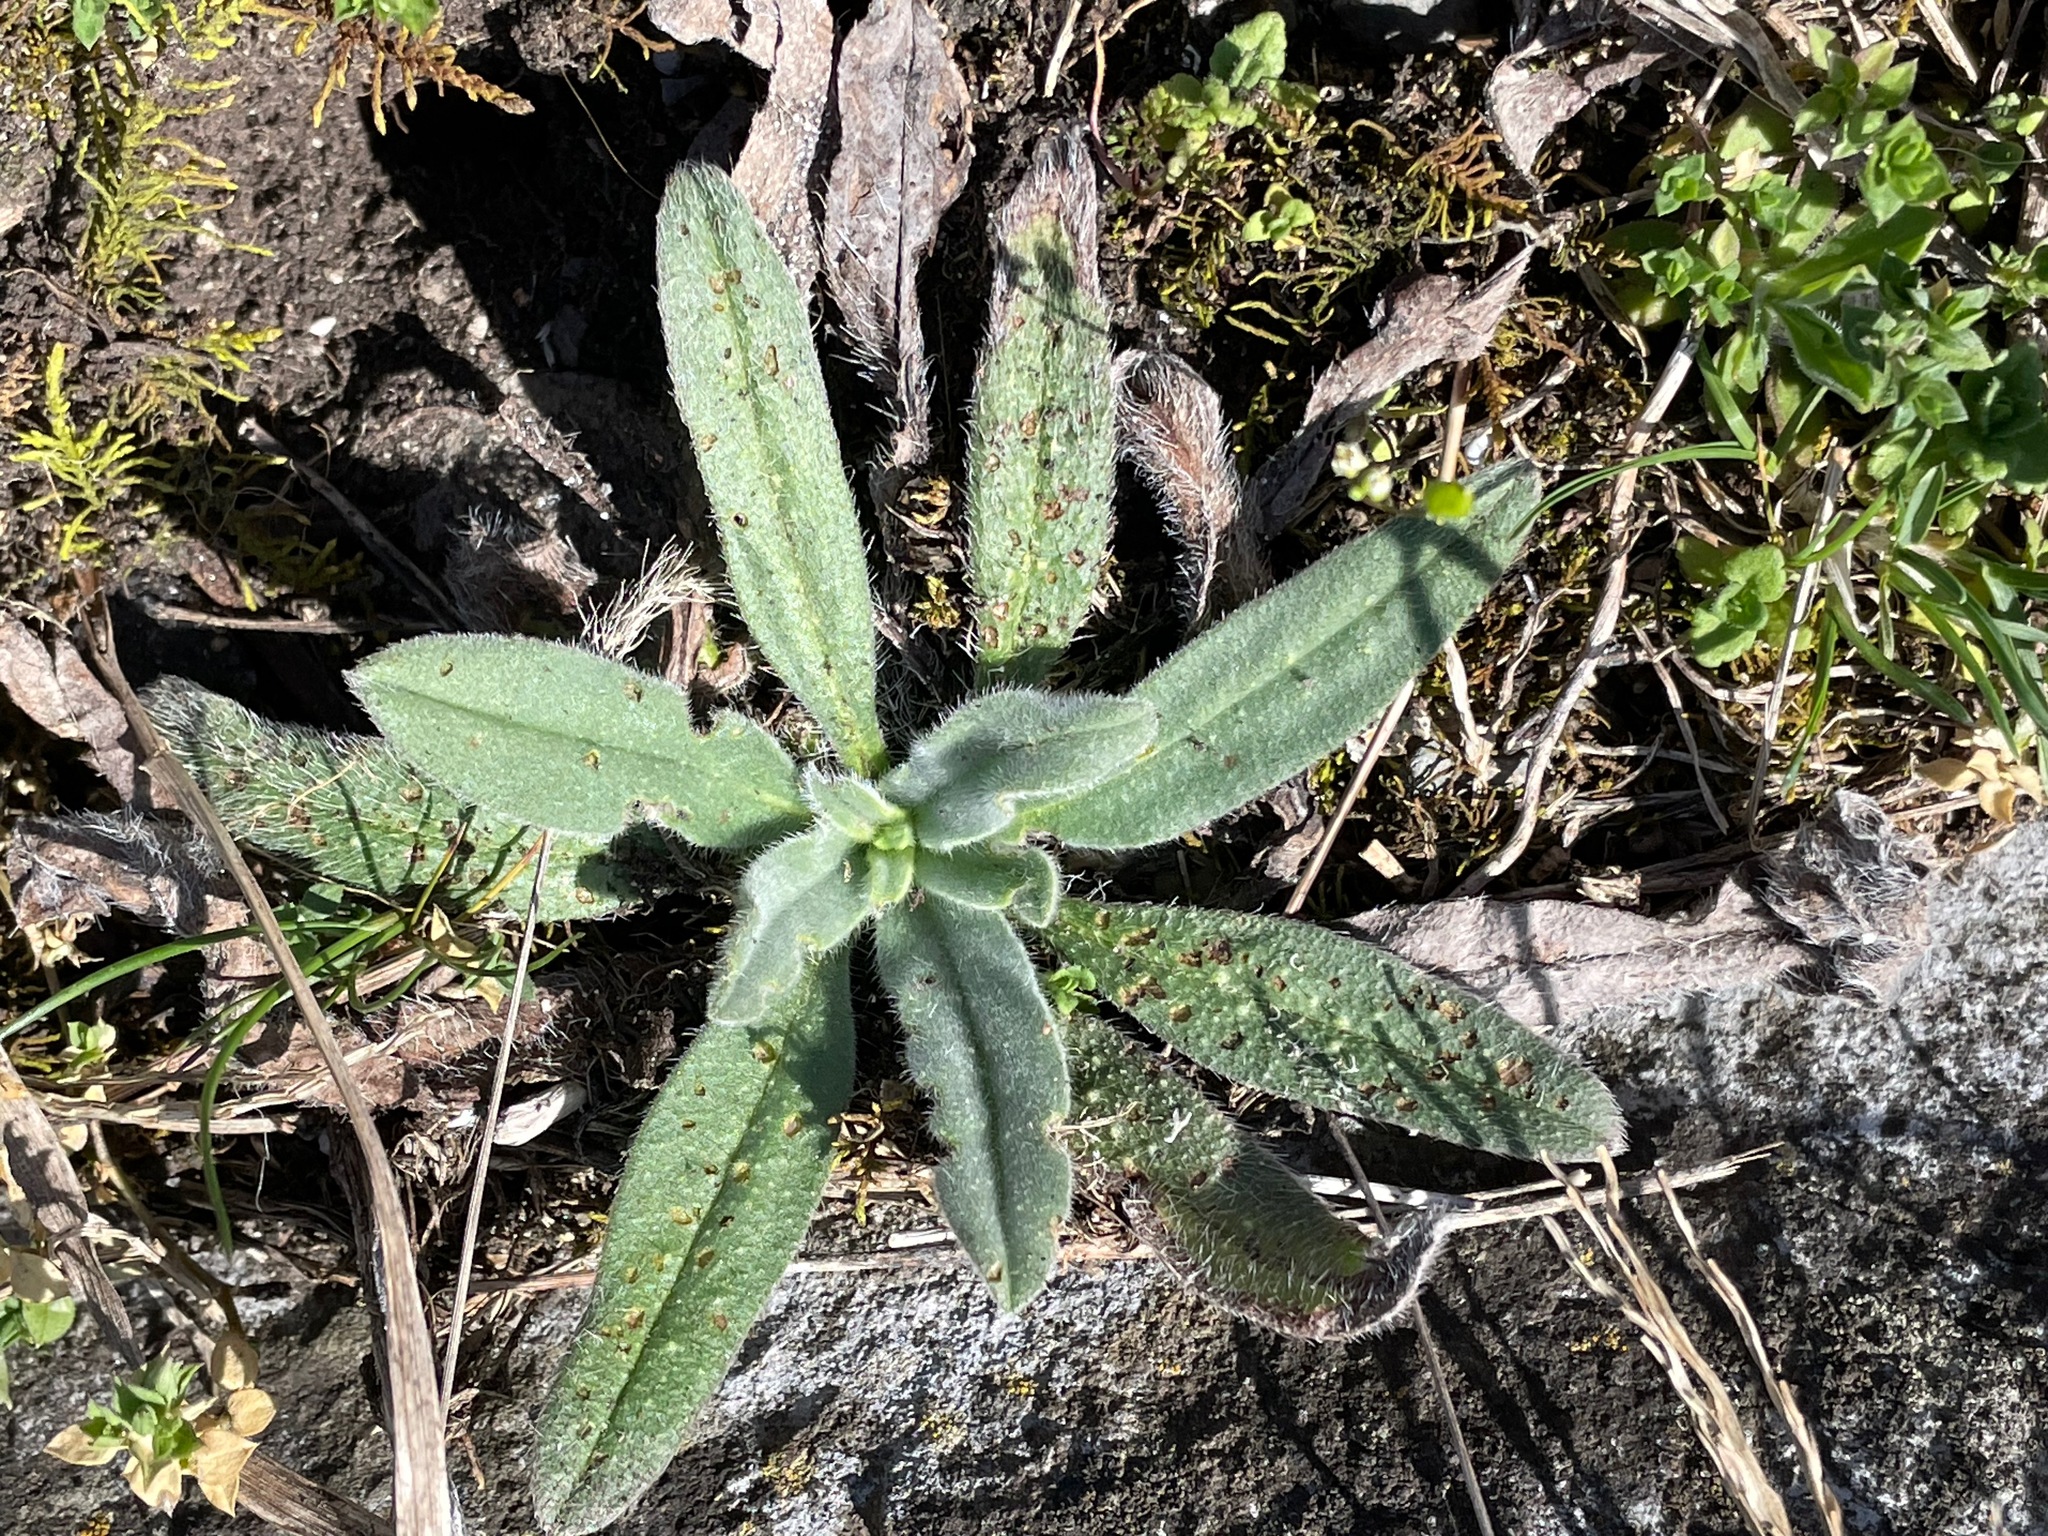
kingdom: Plantae
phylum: Tracheophyta
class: Magnoliopsida
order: Boraginales
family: Boraginaceae
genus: Echium
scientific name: Echium vulgare
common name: Common viper's bugloss
